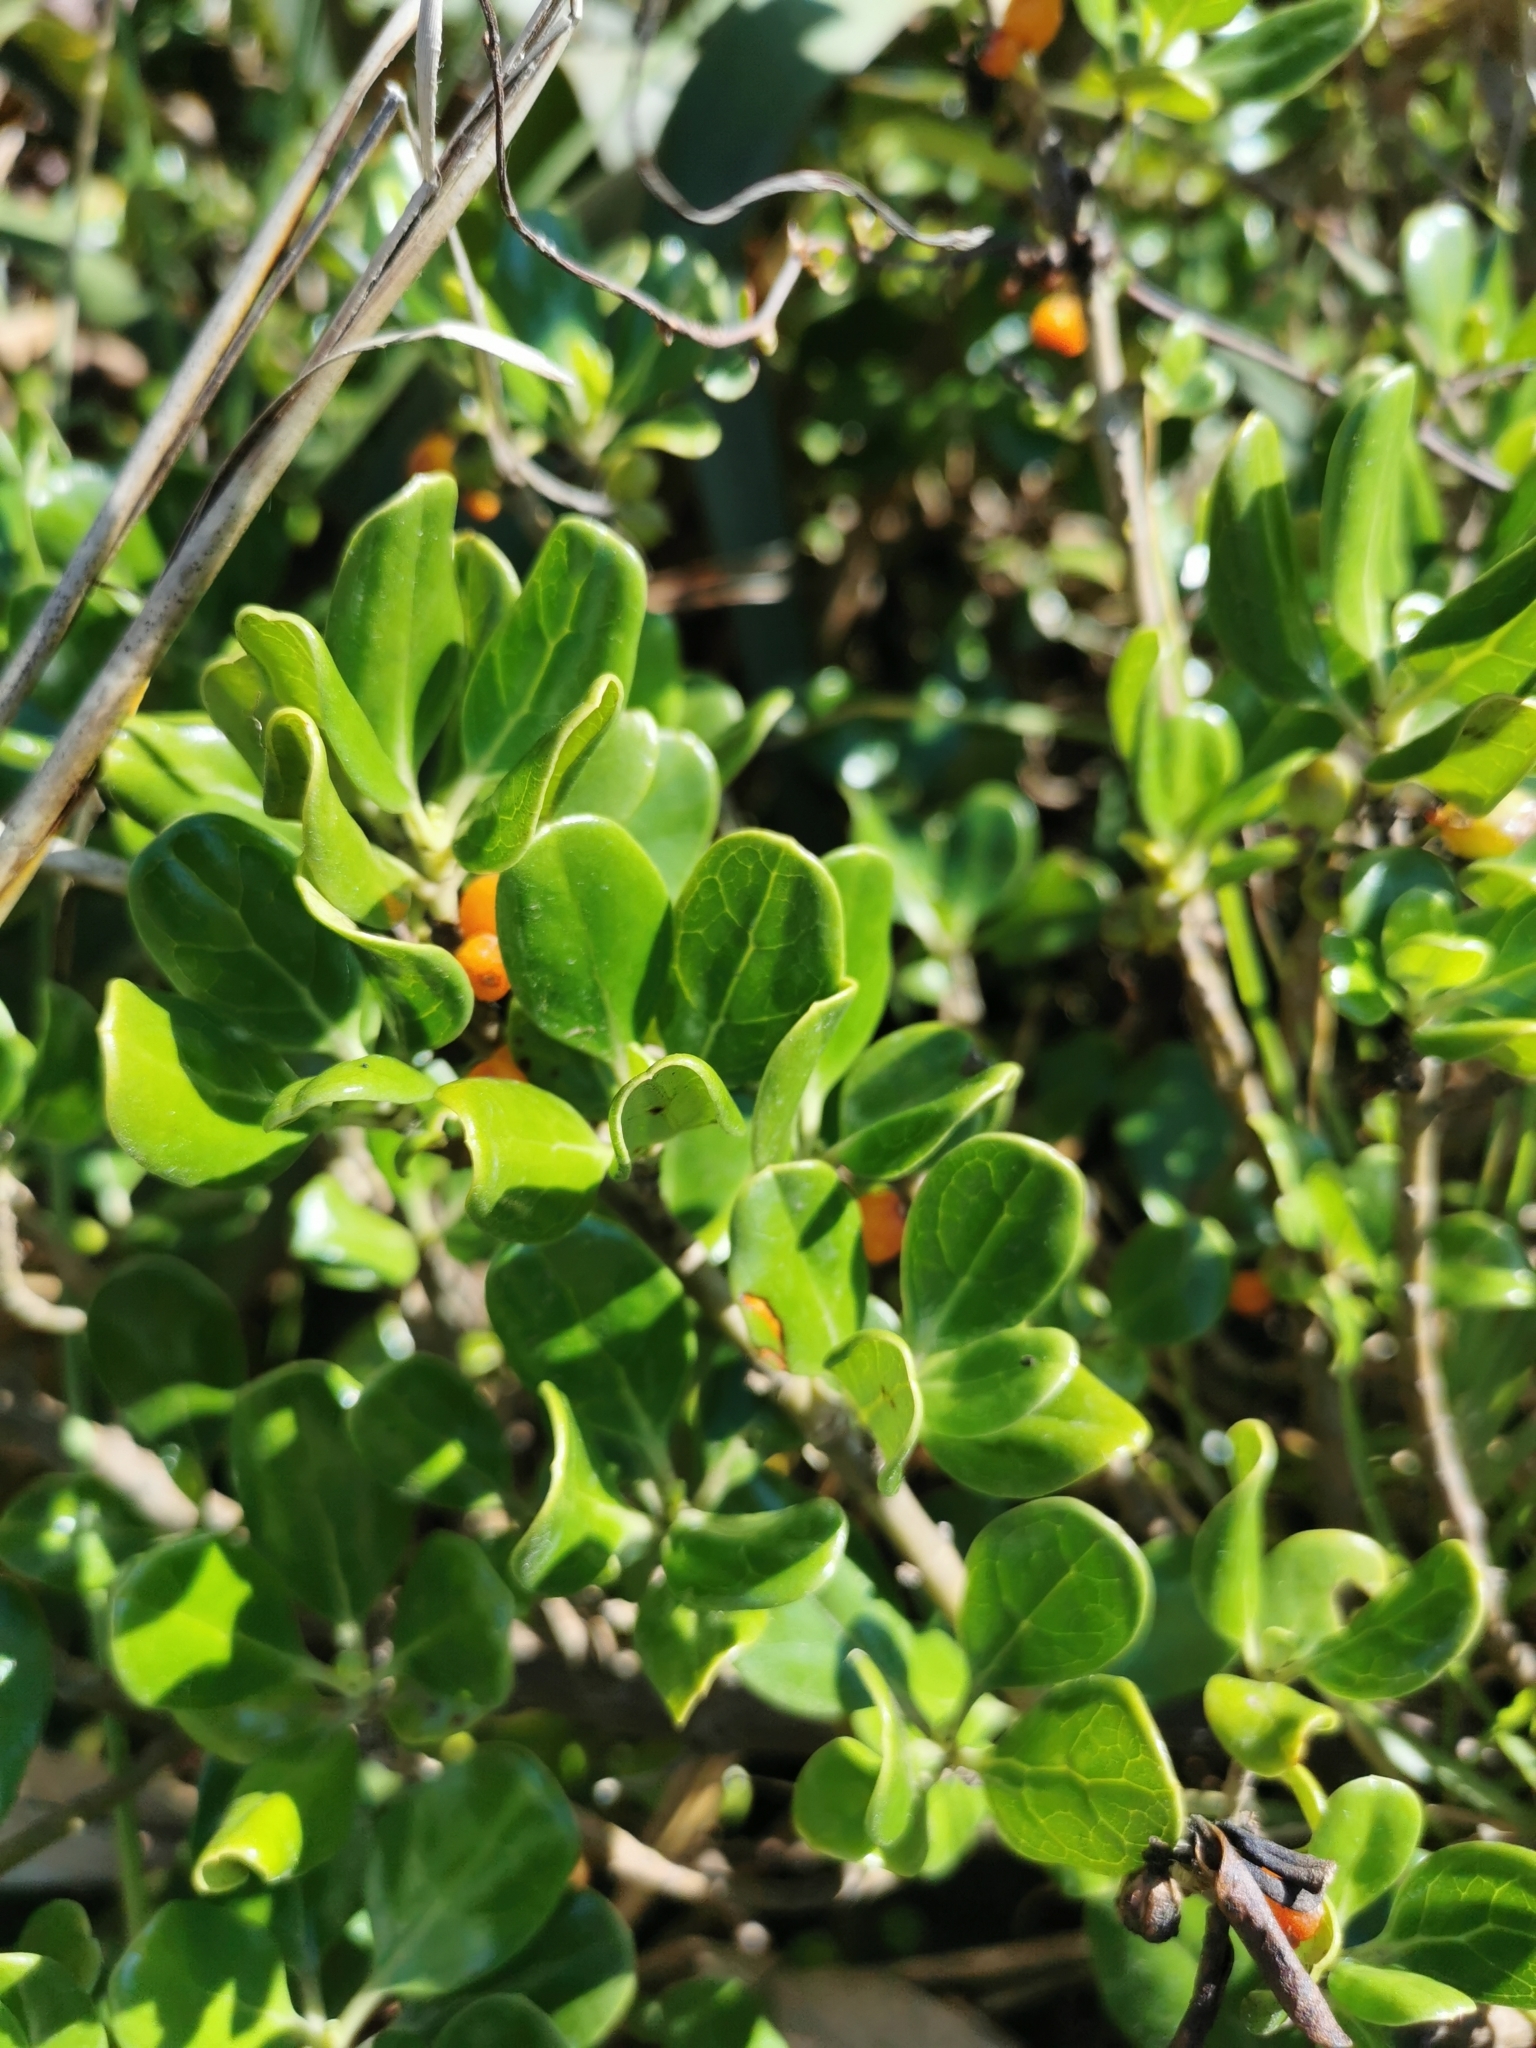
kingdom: Plantae
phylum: Tracheophyta
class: Magnoliopsida
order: Gentianales
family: Rubiaceae
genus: Coprosma
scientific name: Coprosma repens
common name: Tree bedstraw
